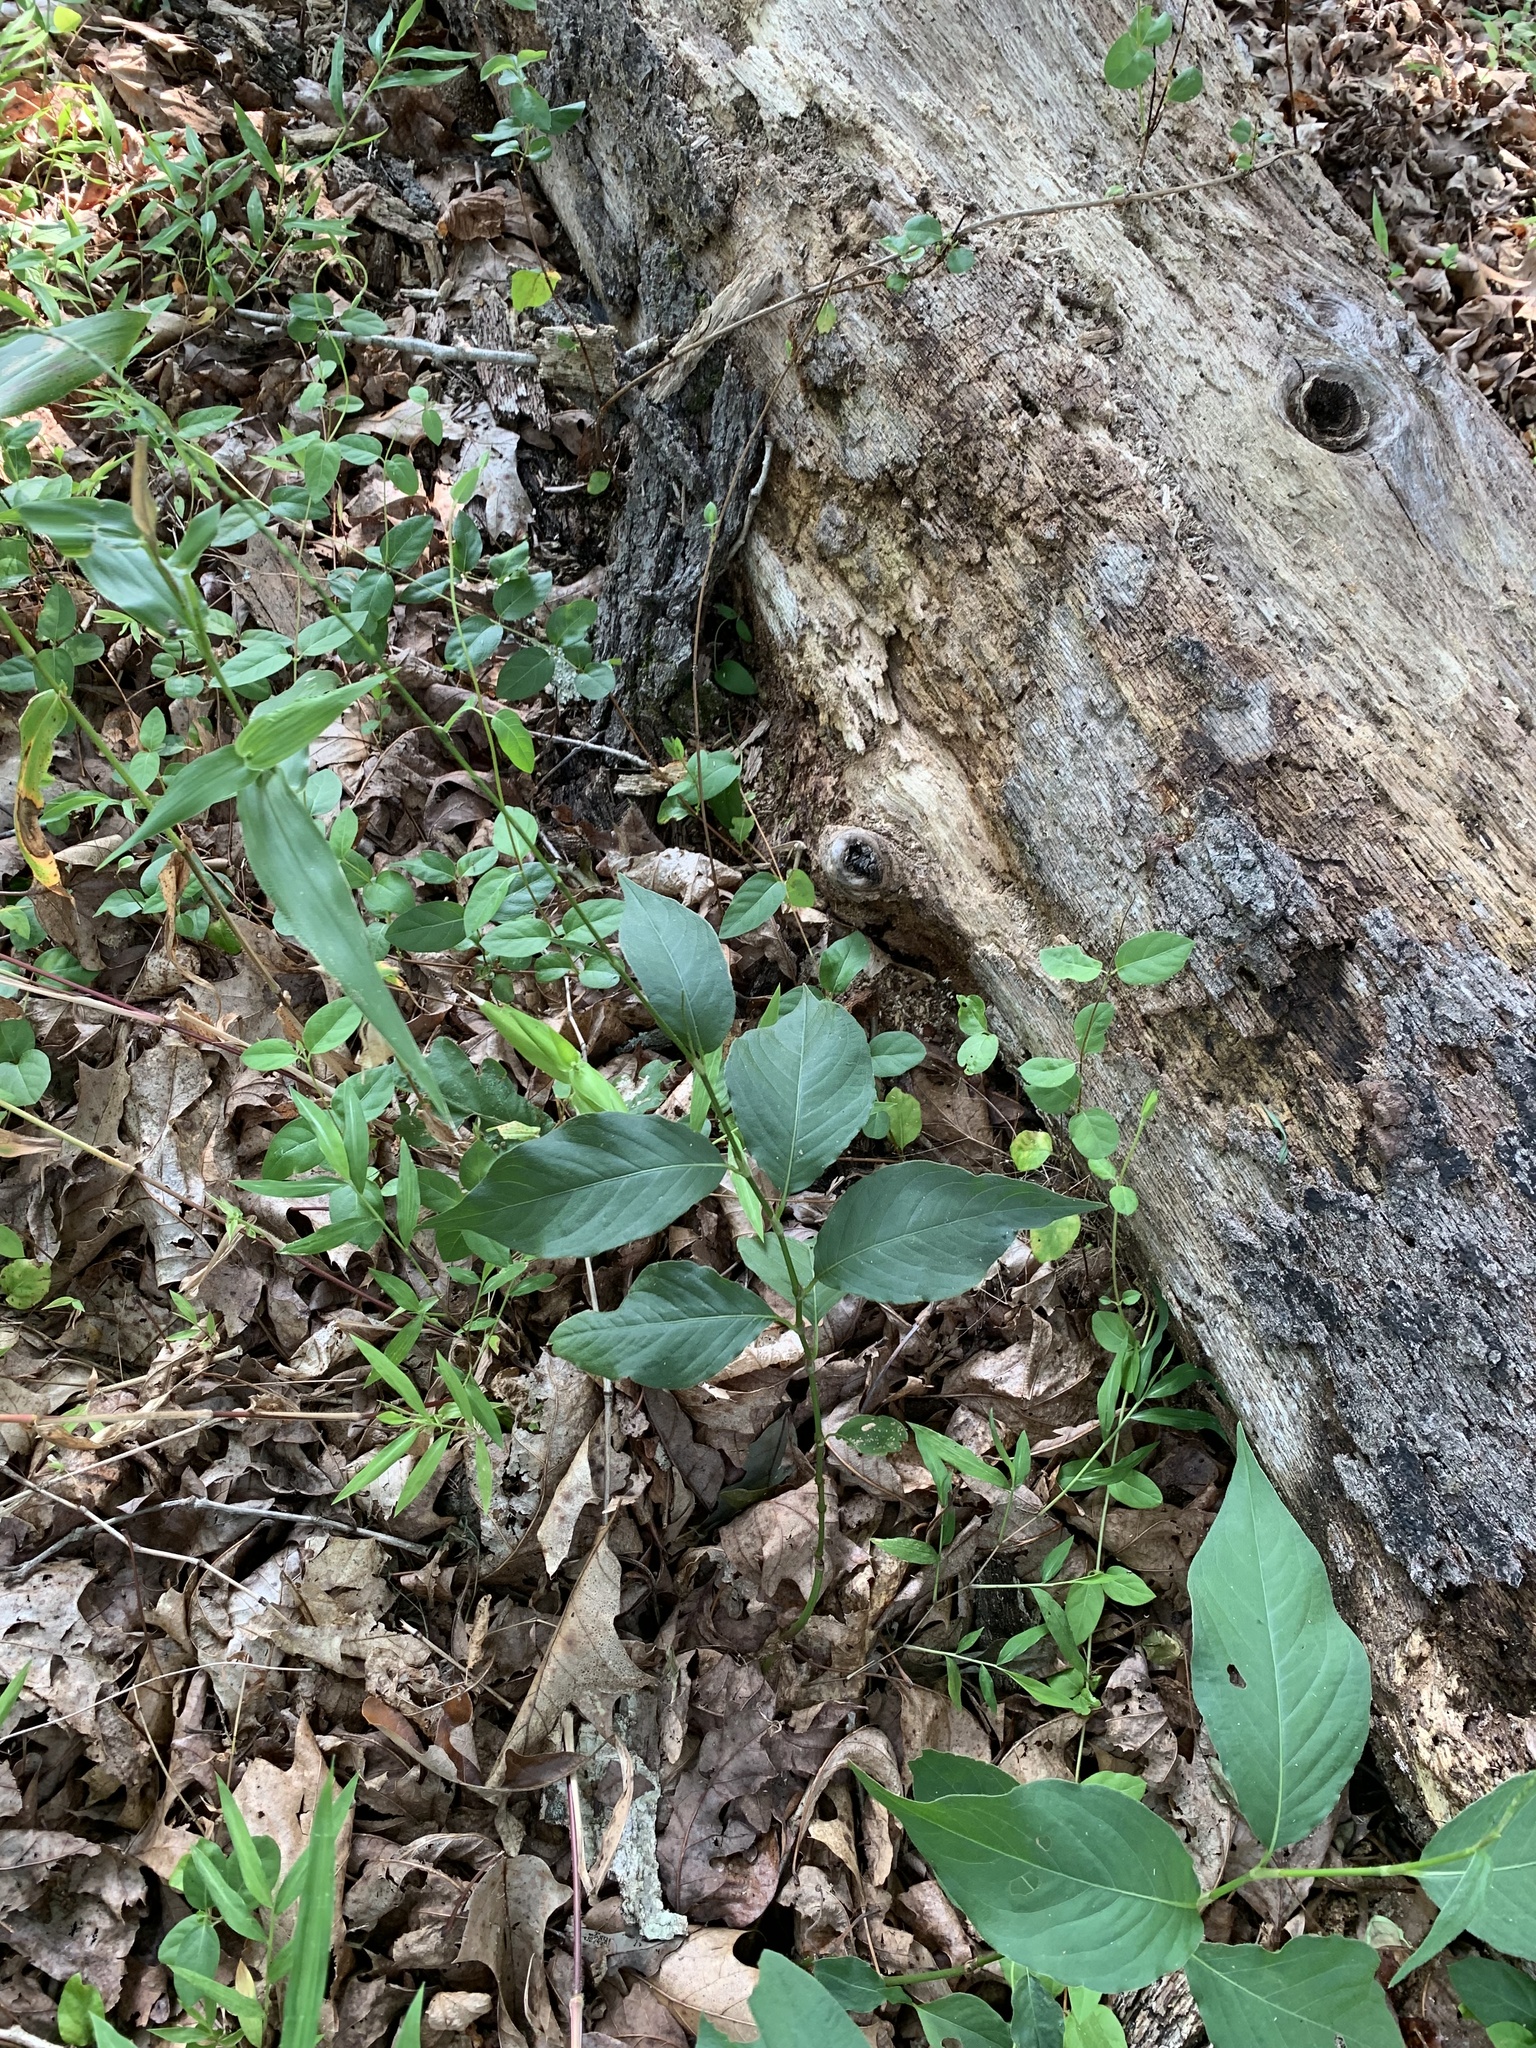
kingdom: Plantae
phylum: Tracheophyta
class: Magnoliopsida
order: Caryophyllales
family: Polygonaceae
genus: Persicaria
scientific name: Persicaria virginiana
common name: Jumpseed
